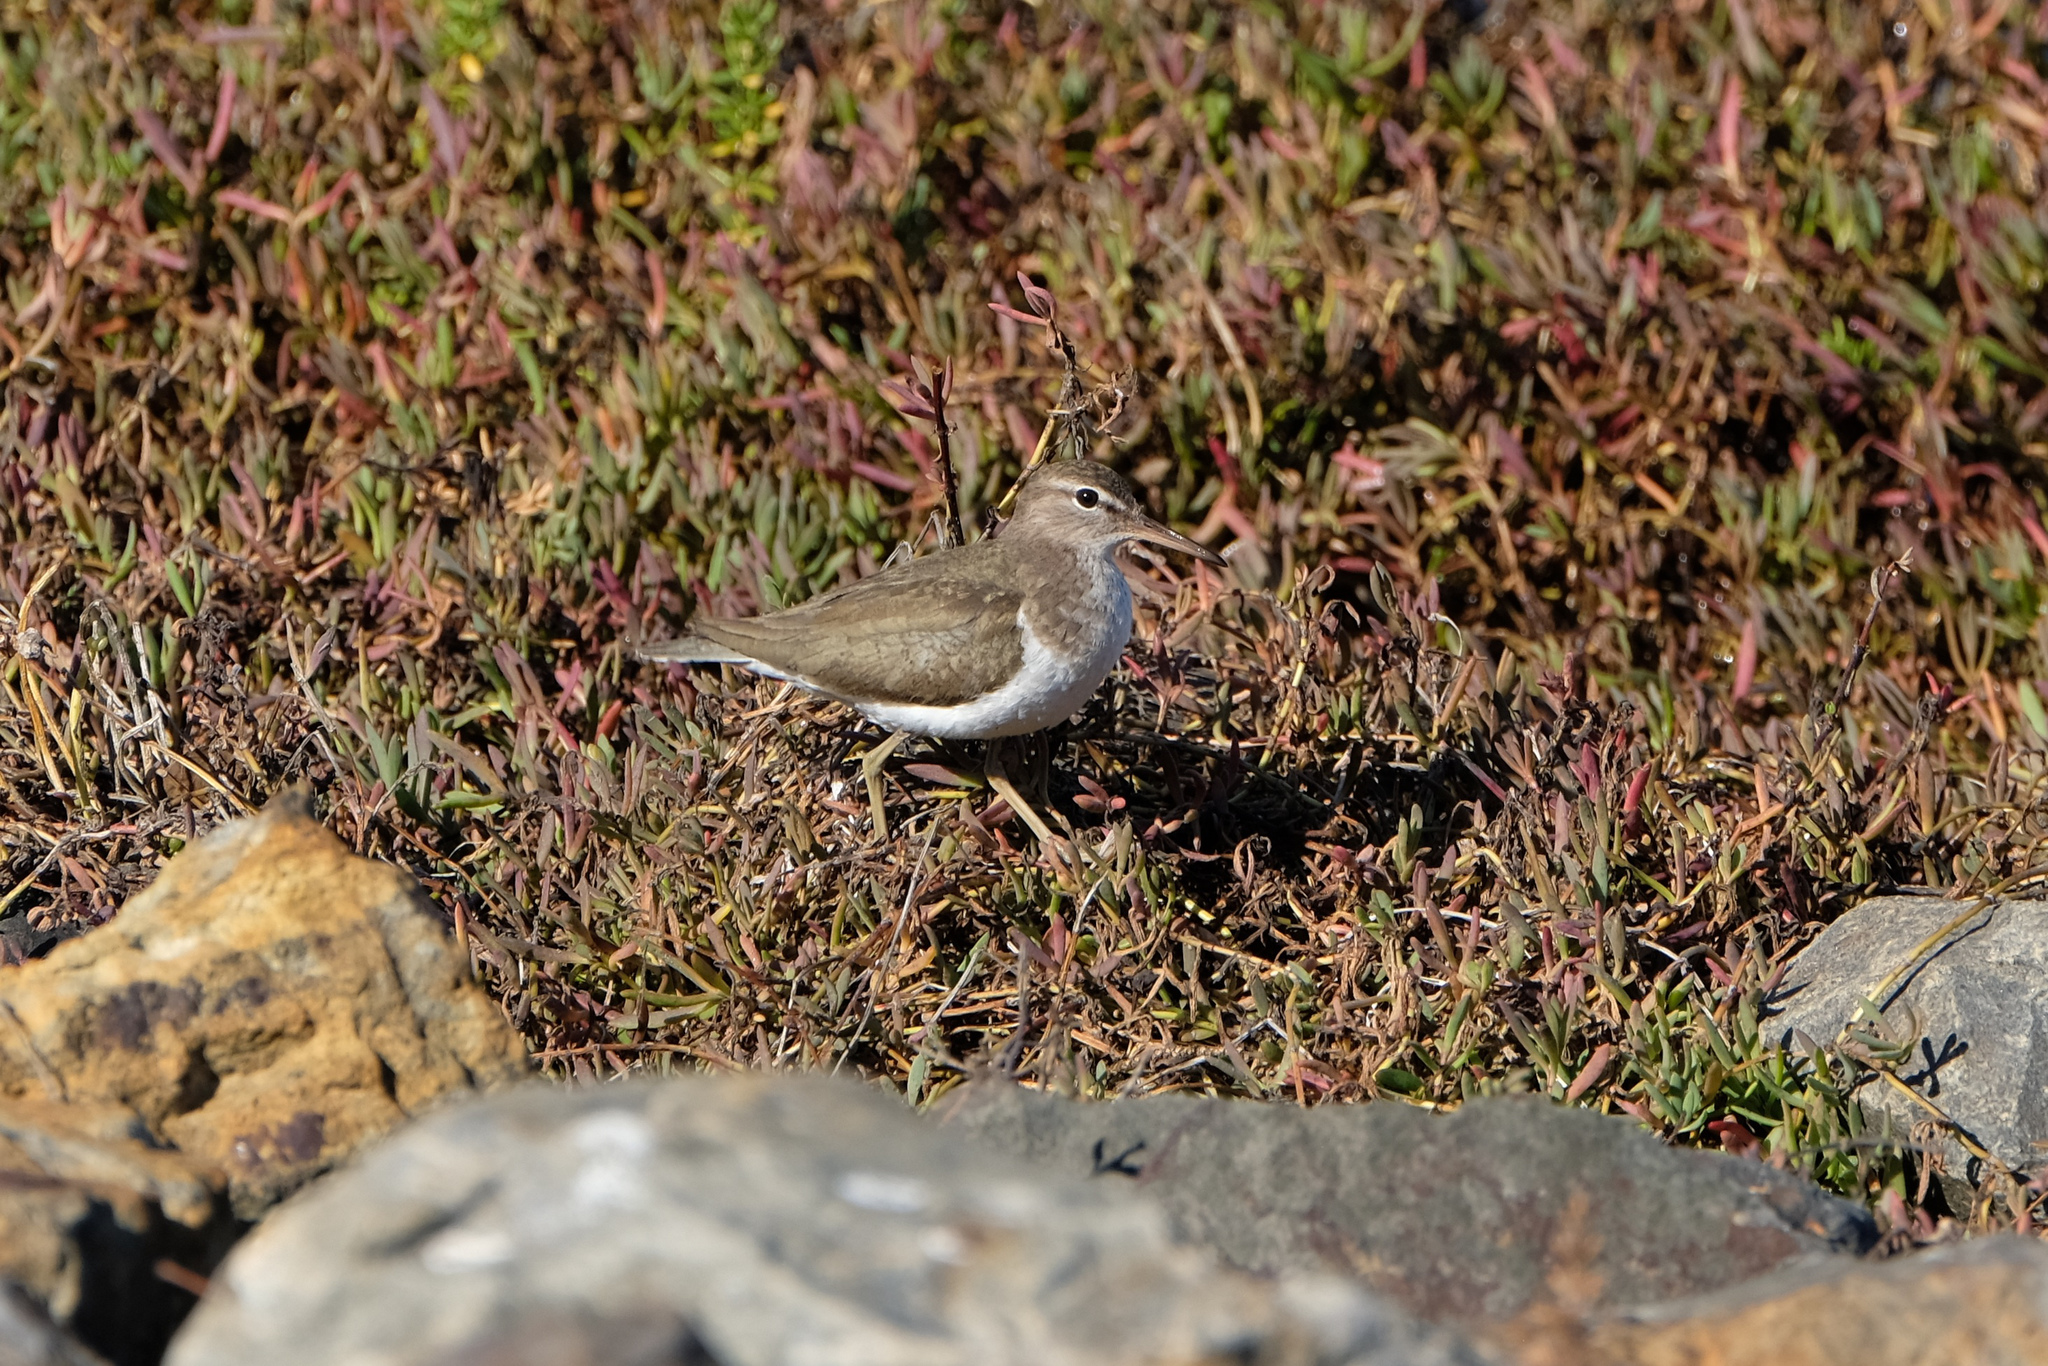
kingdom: Animalia
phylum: Chordata
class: Aves
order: Charadriiformes
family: Scolopacidae
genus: Actitis
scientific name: Actitis macularius
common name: Spotted sandpiper
